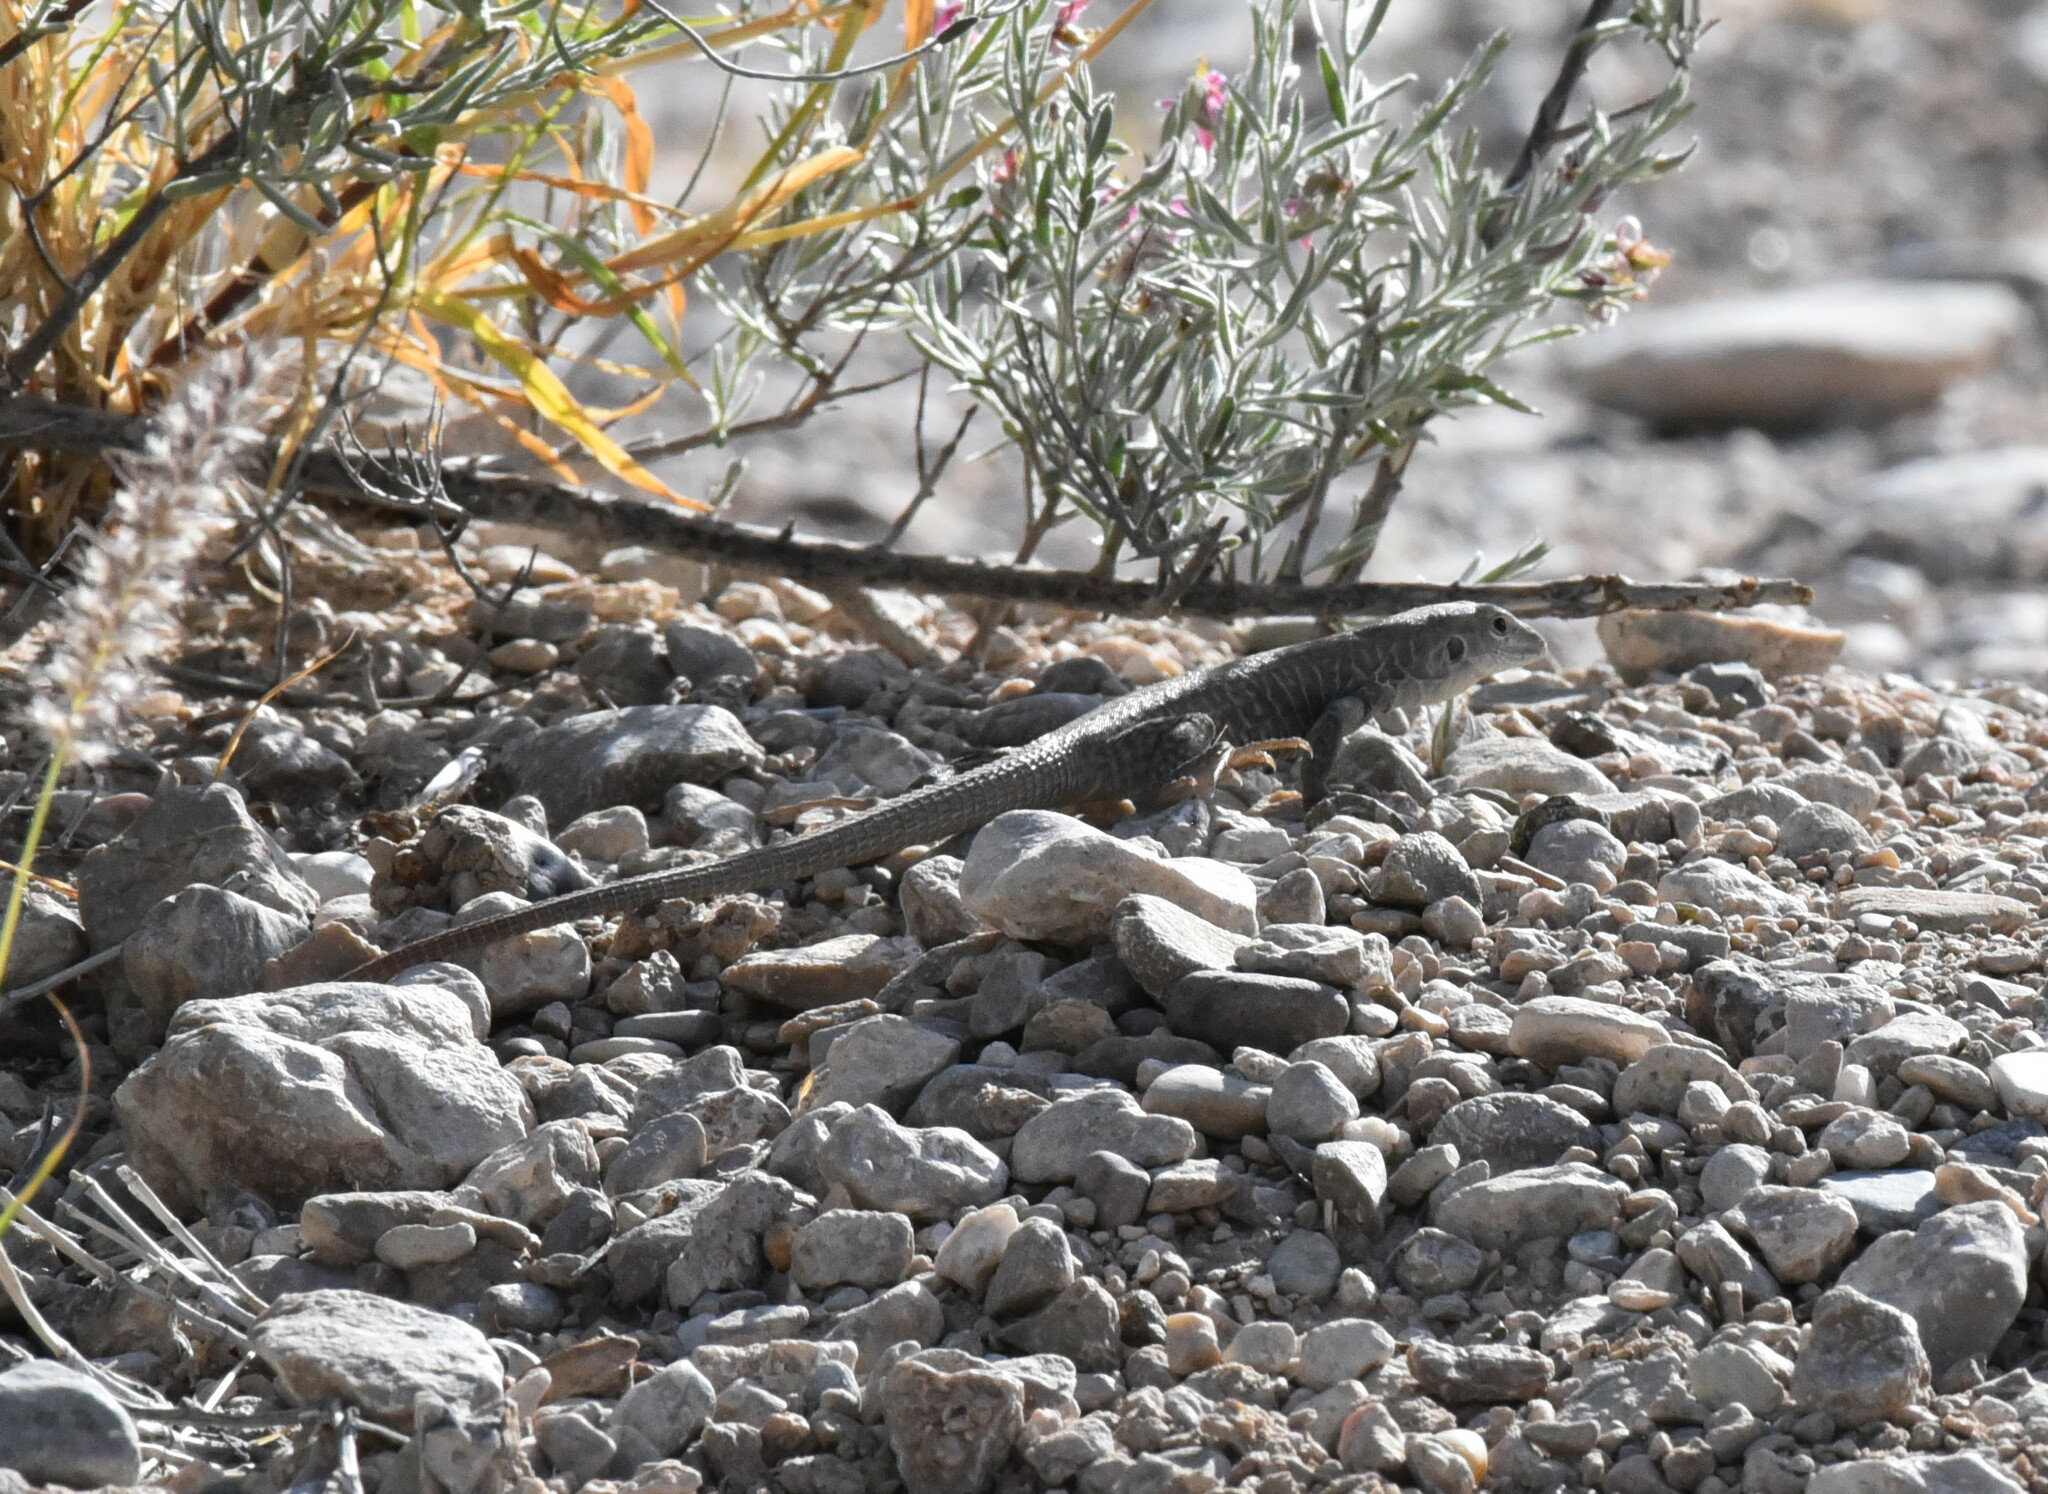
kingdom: Animalia
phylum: Chordata
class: Squamata
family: Teiidae
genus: Aspidoscelis
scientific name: Aspidoscelis marmoratus
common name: Eastern marbled whiptail [reticuloriens]
